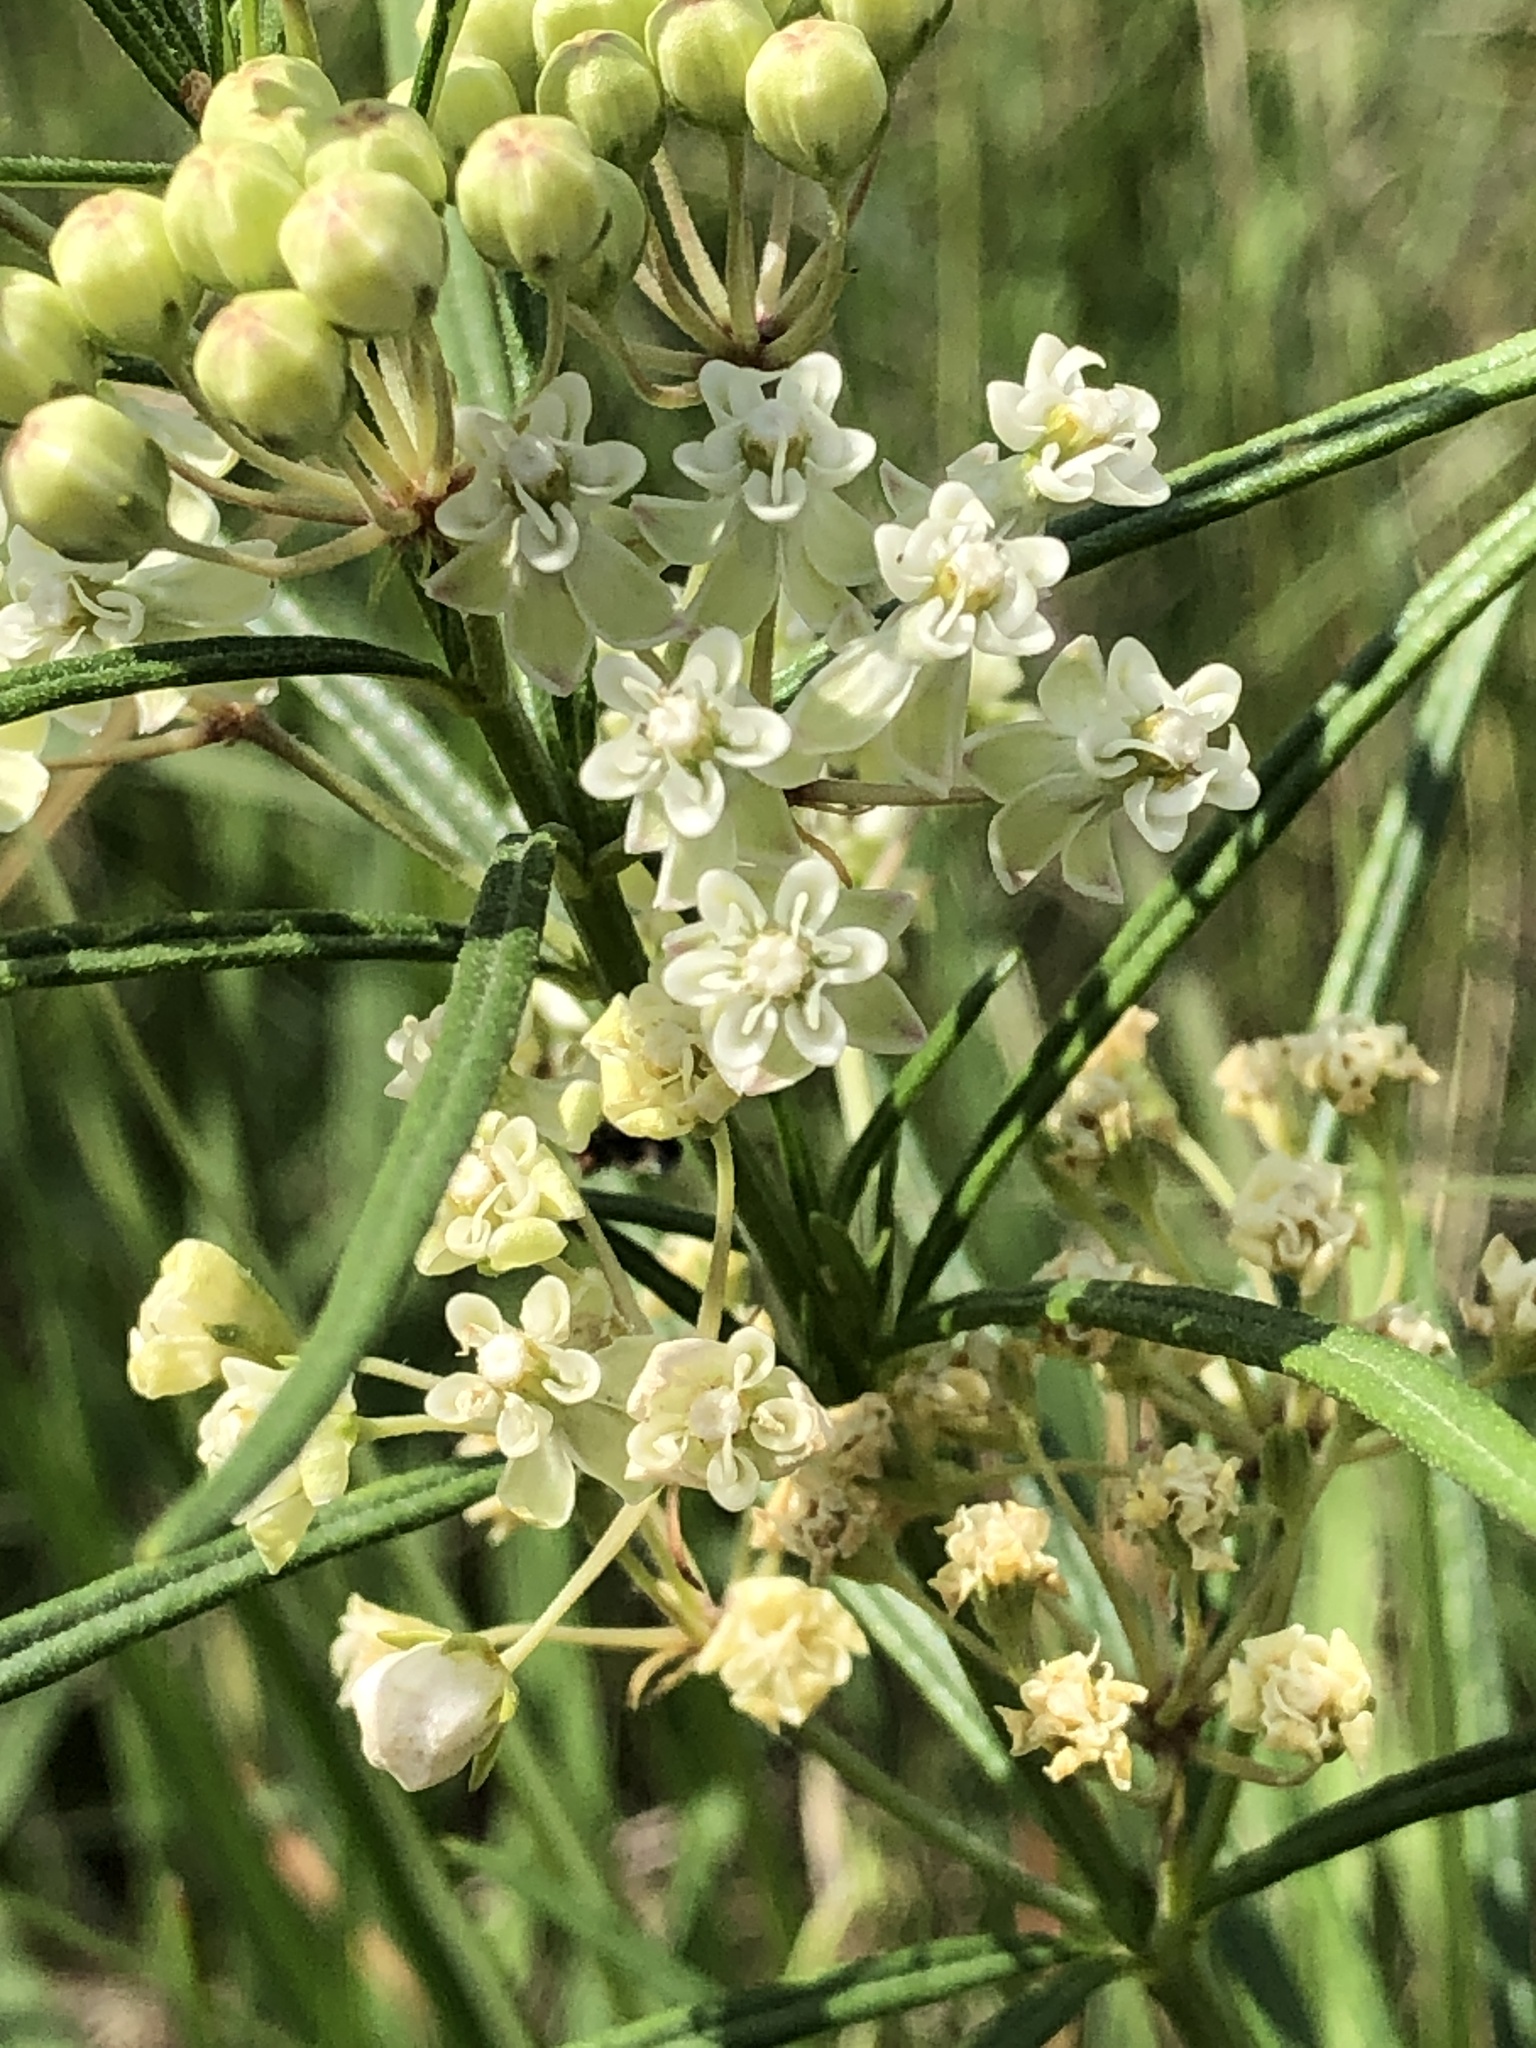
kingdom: Plantae
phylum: Tracheophyta
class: Magnoliopsida
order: Gentianales
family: Apocynaceae
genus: Asclepias
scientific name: Asclepias verticillata
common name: Eastern whorled milkweed
